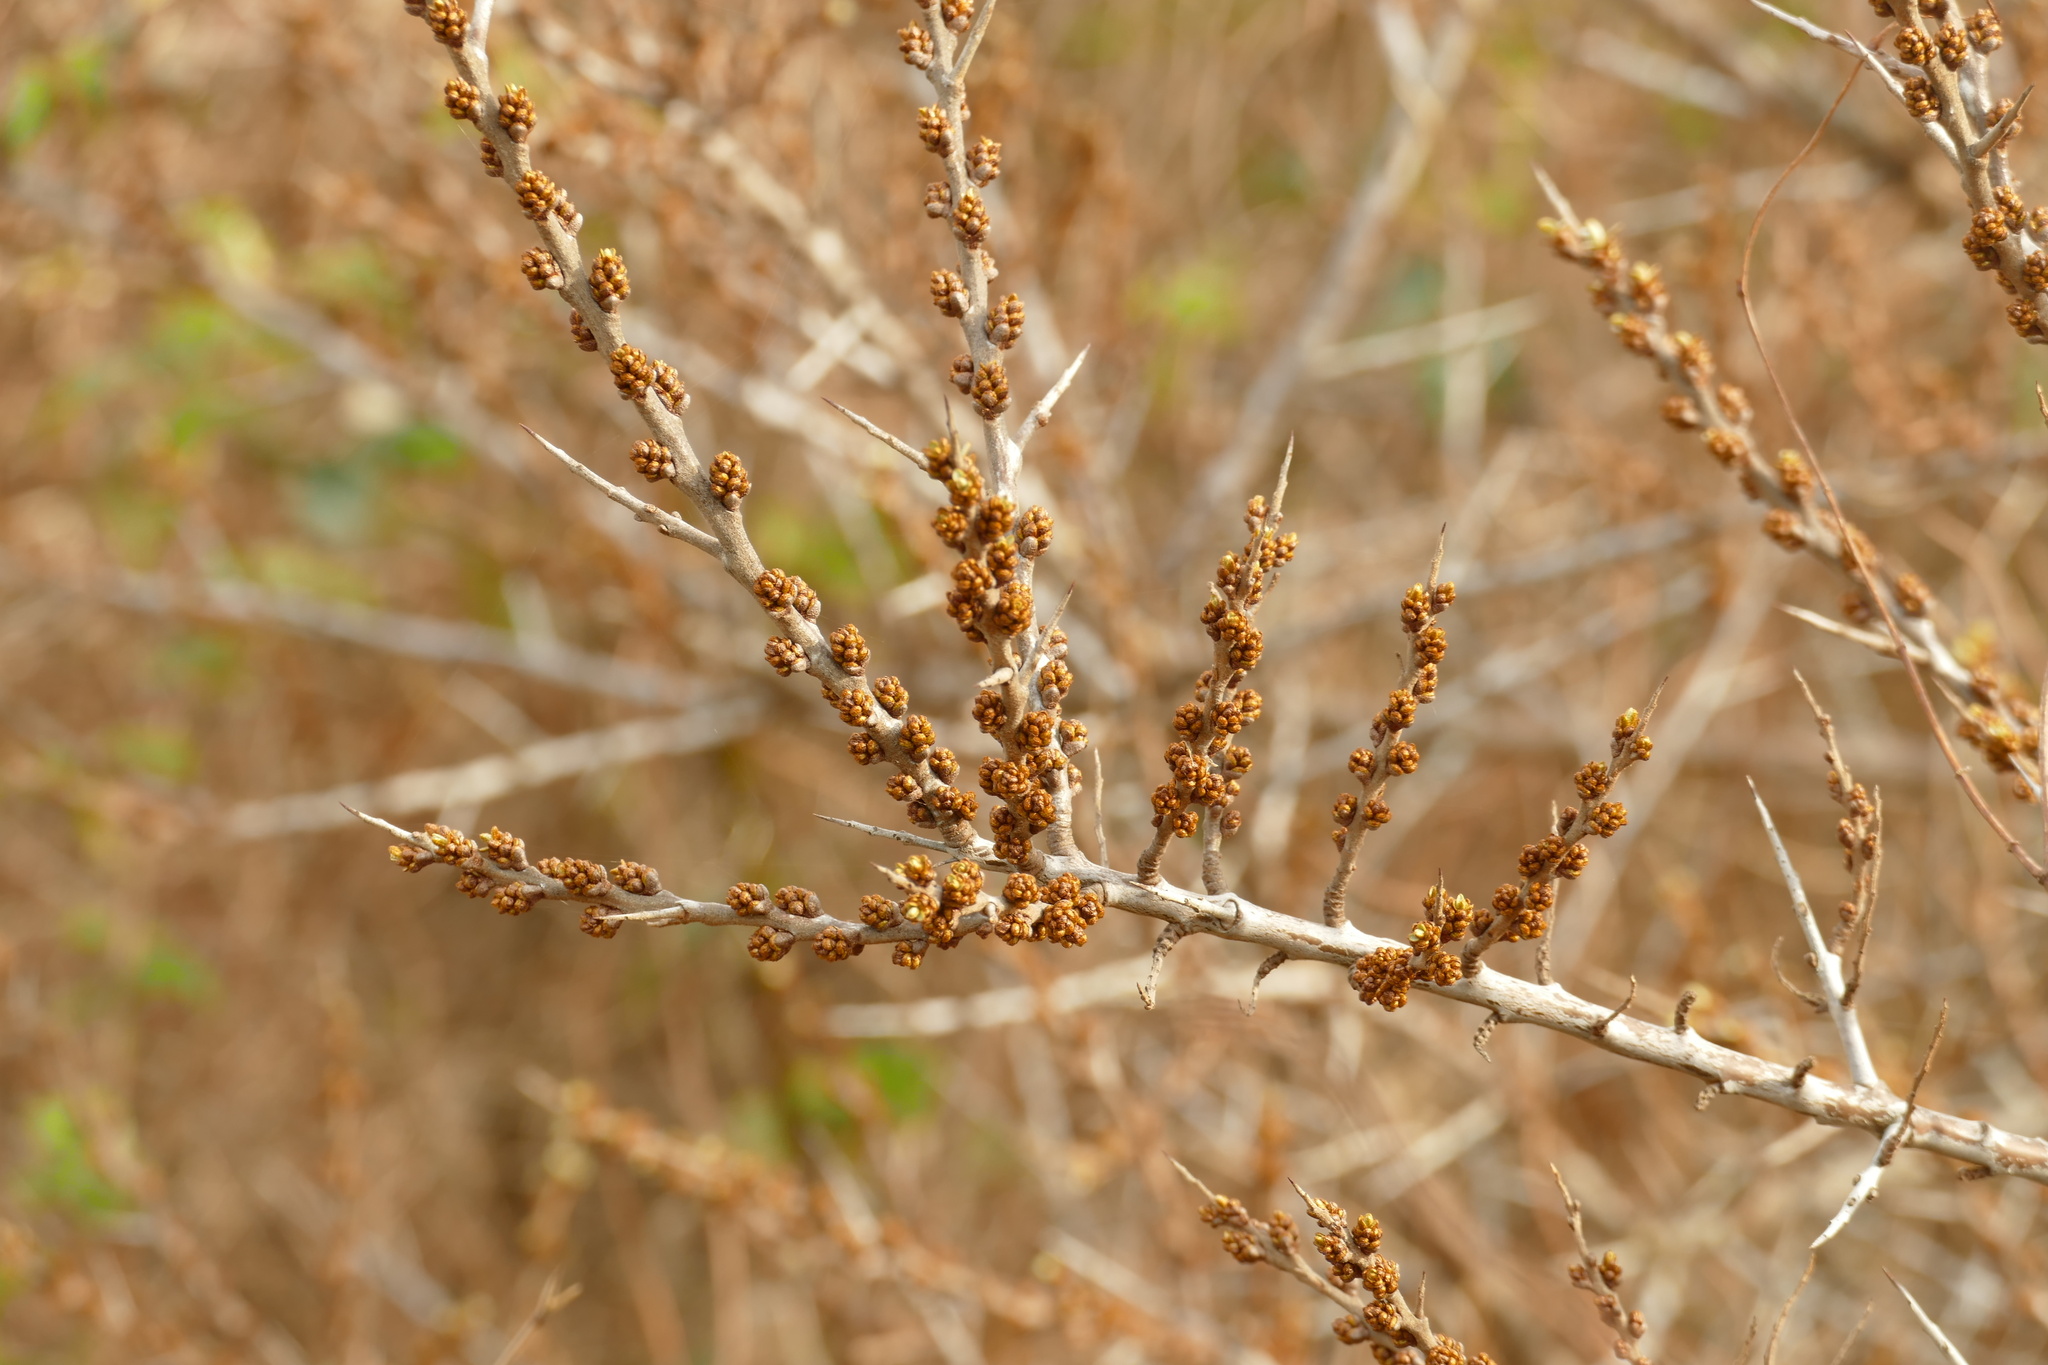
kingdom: Plantae
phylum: Tracheophyta
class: Magnoliopsida
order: Rosales
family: Elaeagnaceae
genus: Hippophae
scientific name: Hippophae rhamnoides
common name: Sea-buckthorn
